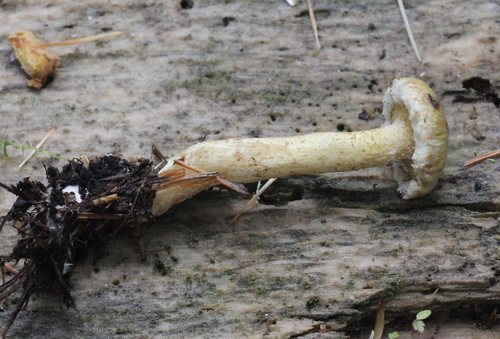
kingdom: Fungi
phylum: Basidiomycota
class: Agaricomycetes
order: Boletales
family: Suillaceae
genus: Suillus
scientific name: Suillus americanus
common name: Chicken fat mushroom
